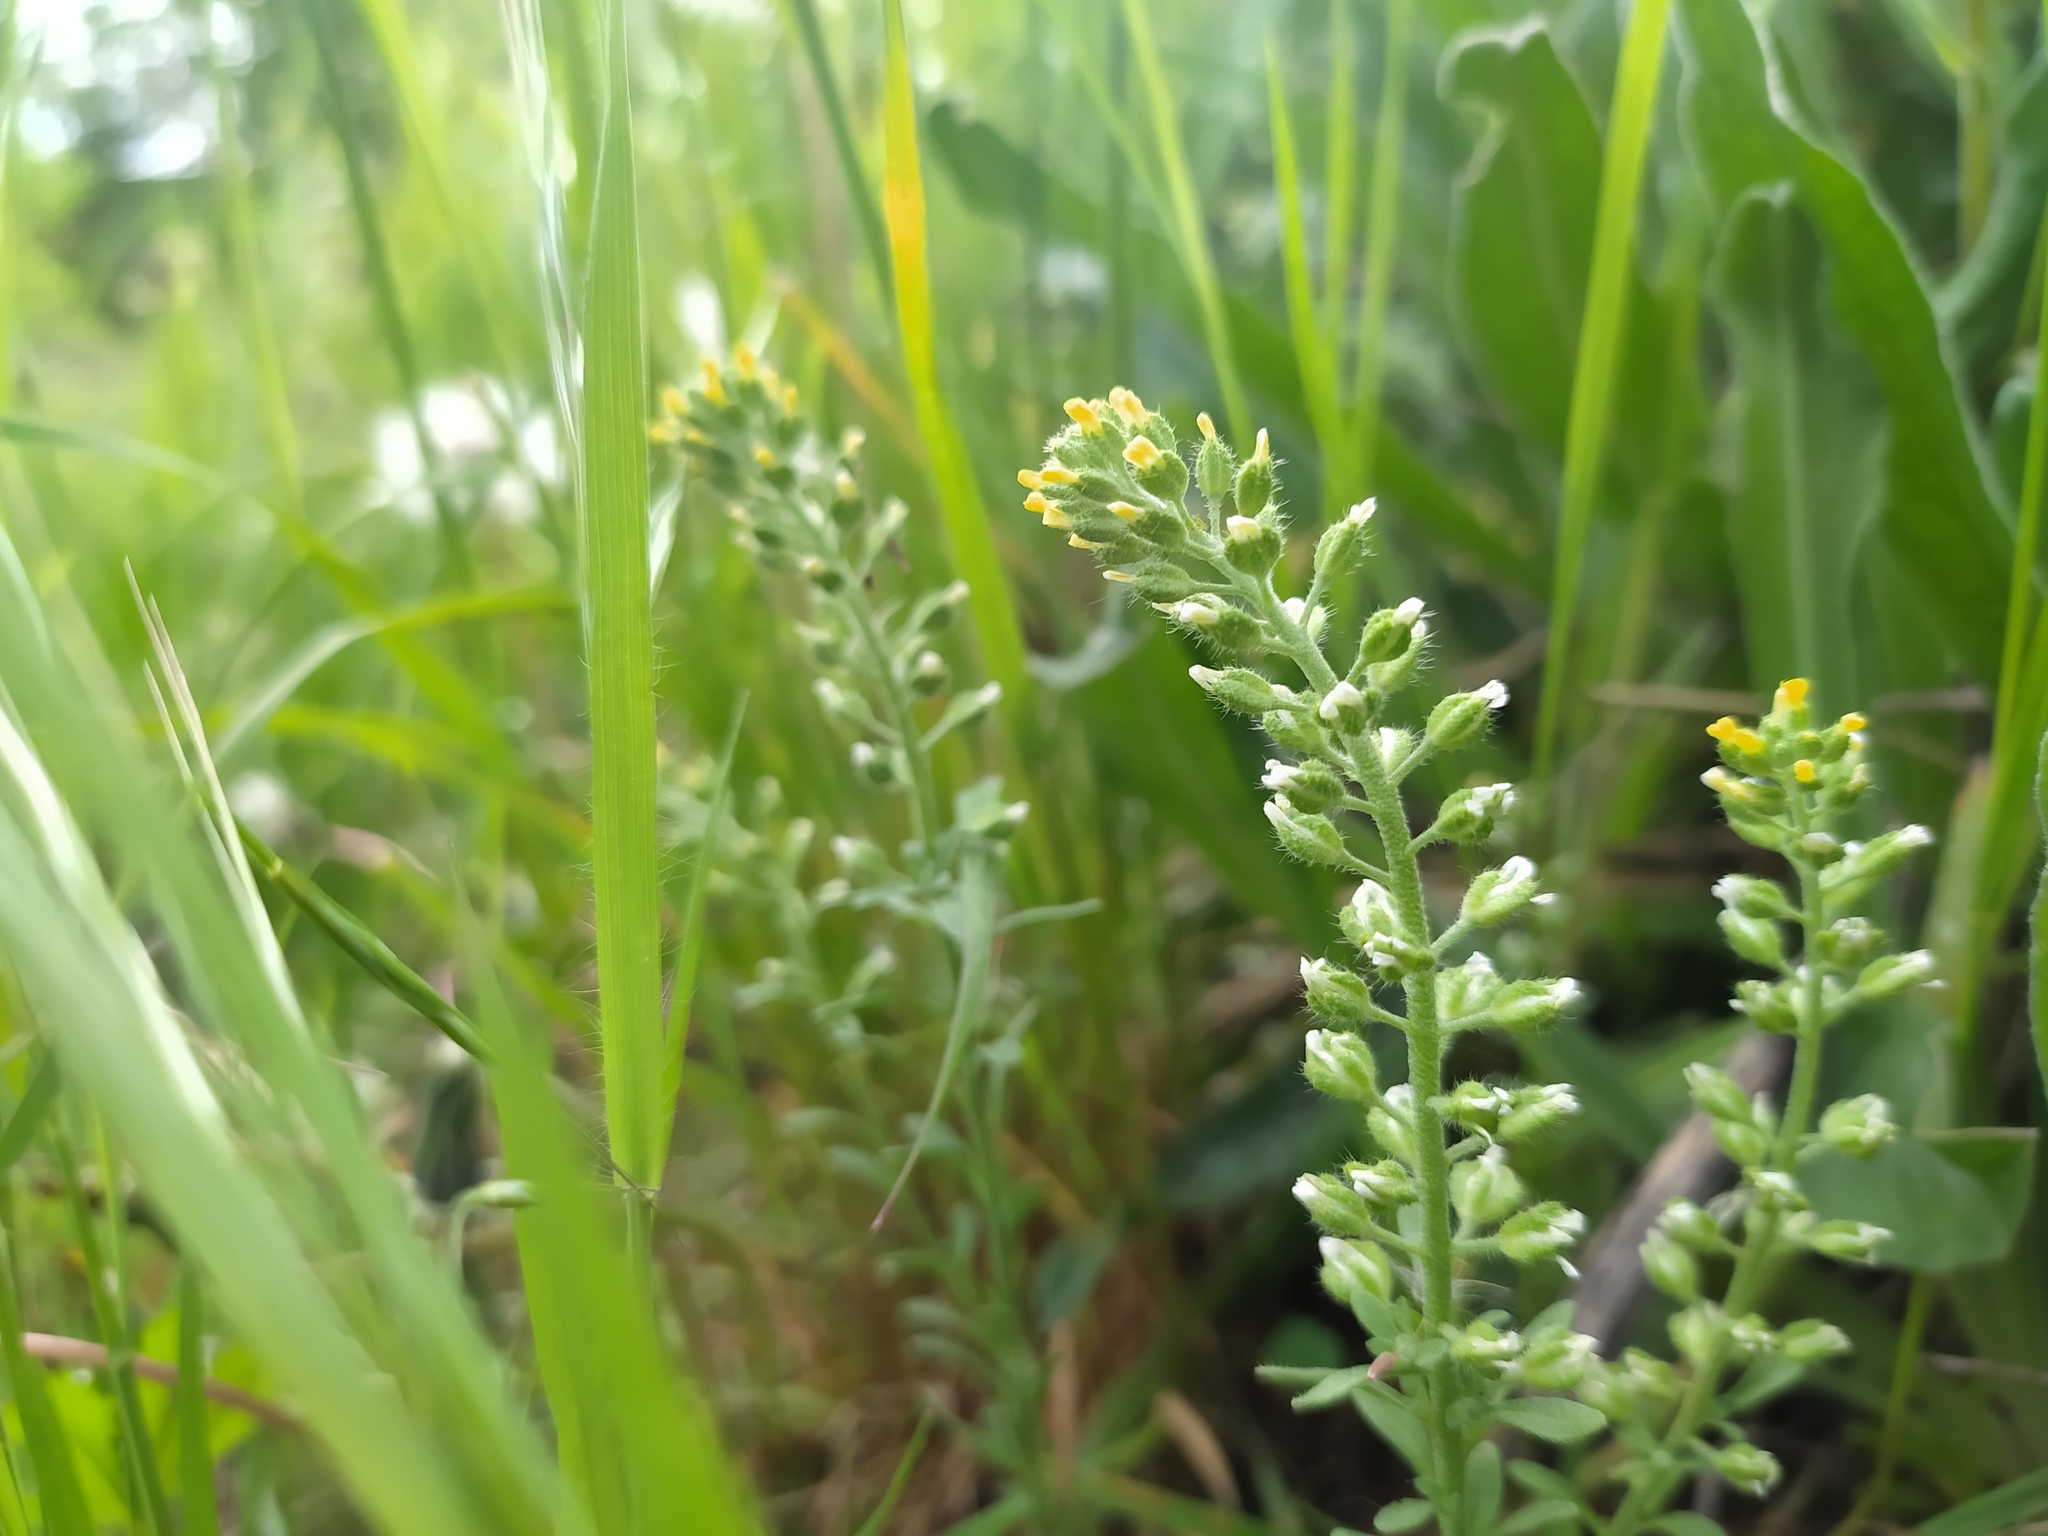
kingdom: Plantae
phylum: Tracheophyta
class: Magnoliopsida
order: Brassicales
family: Brassicaceae
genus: Alyssum
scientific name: Alyssum alyssoides
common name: Small alison
